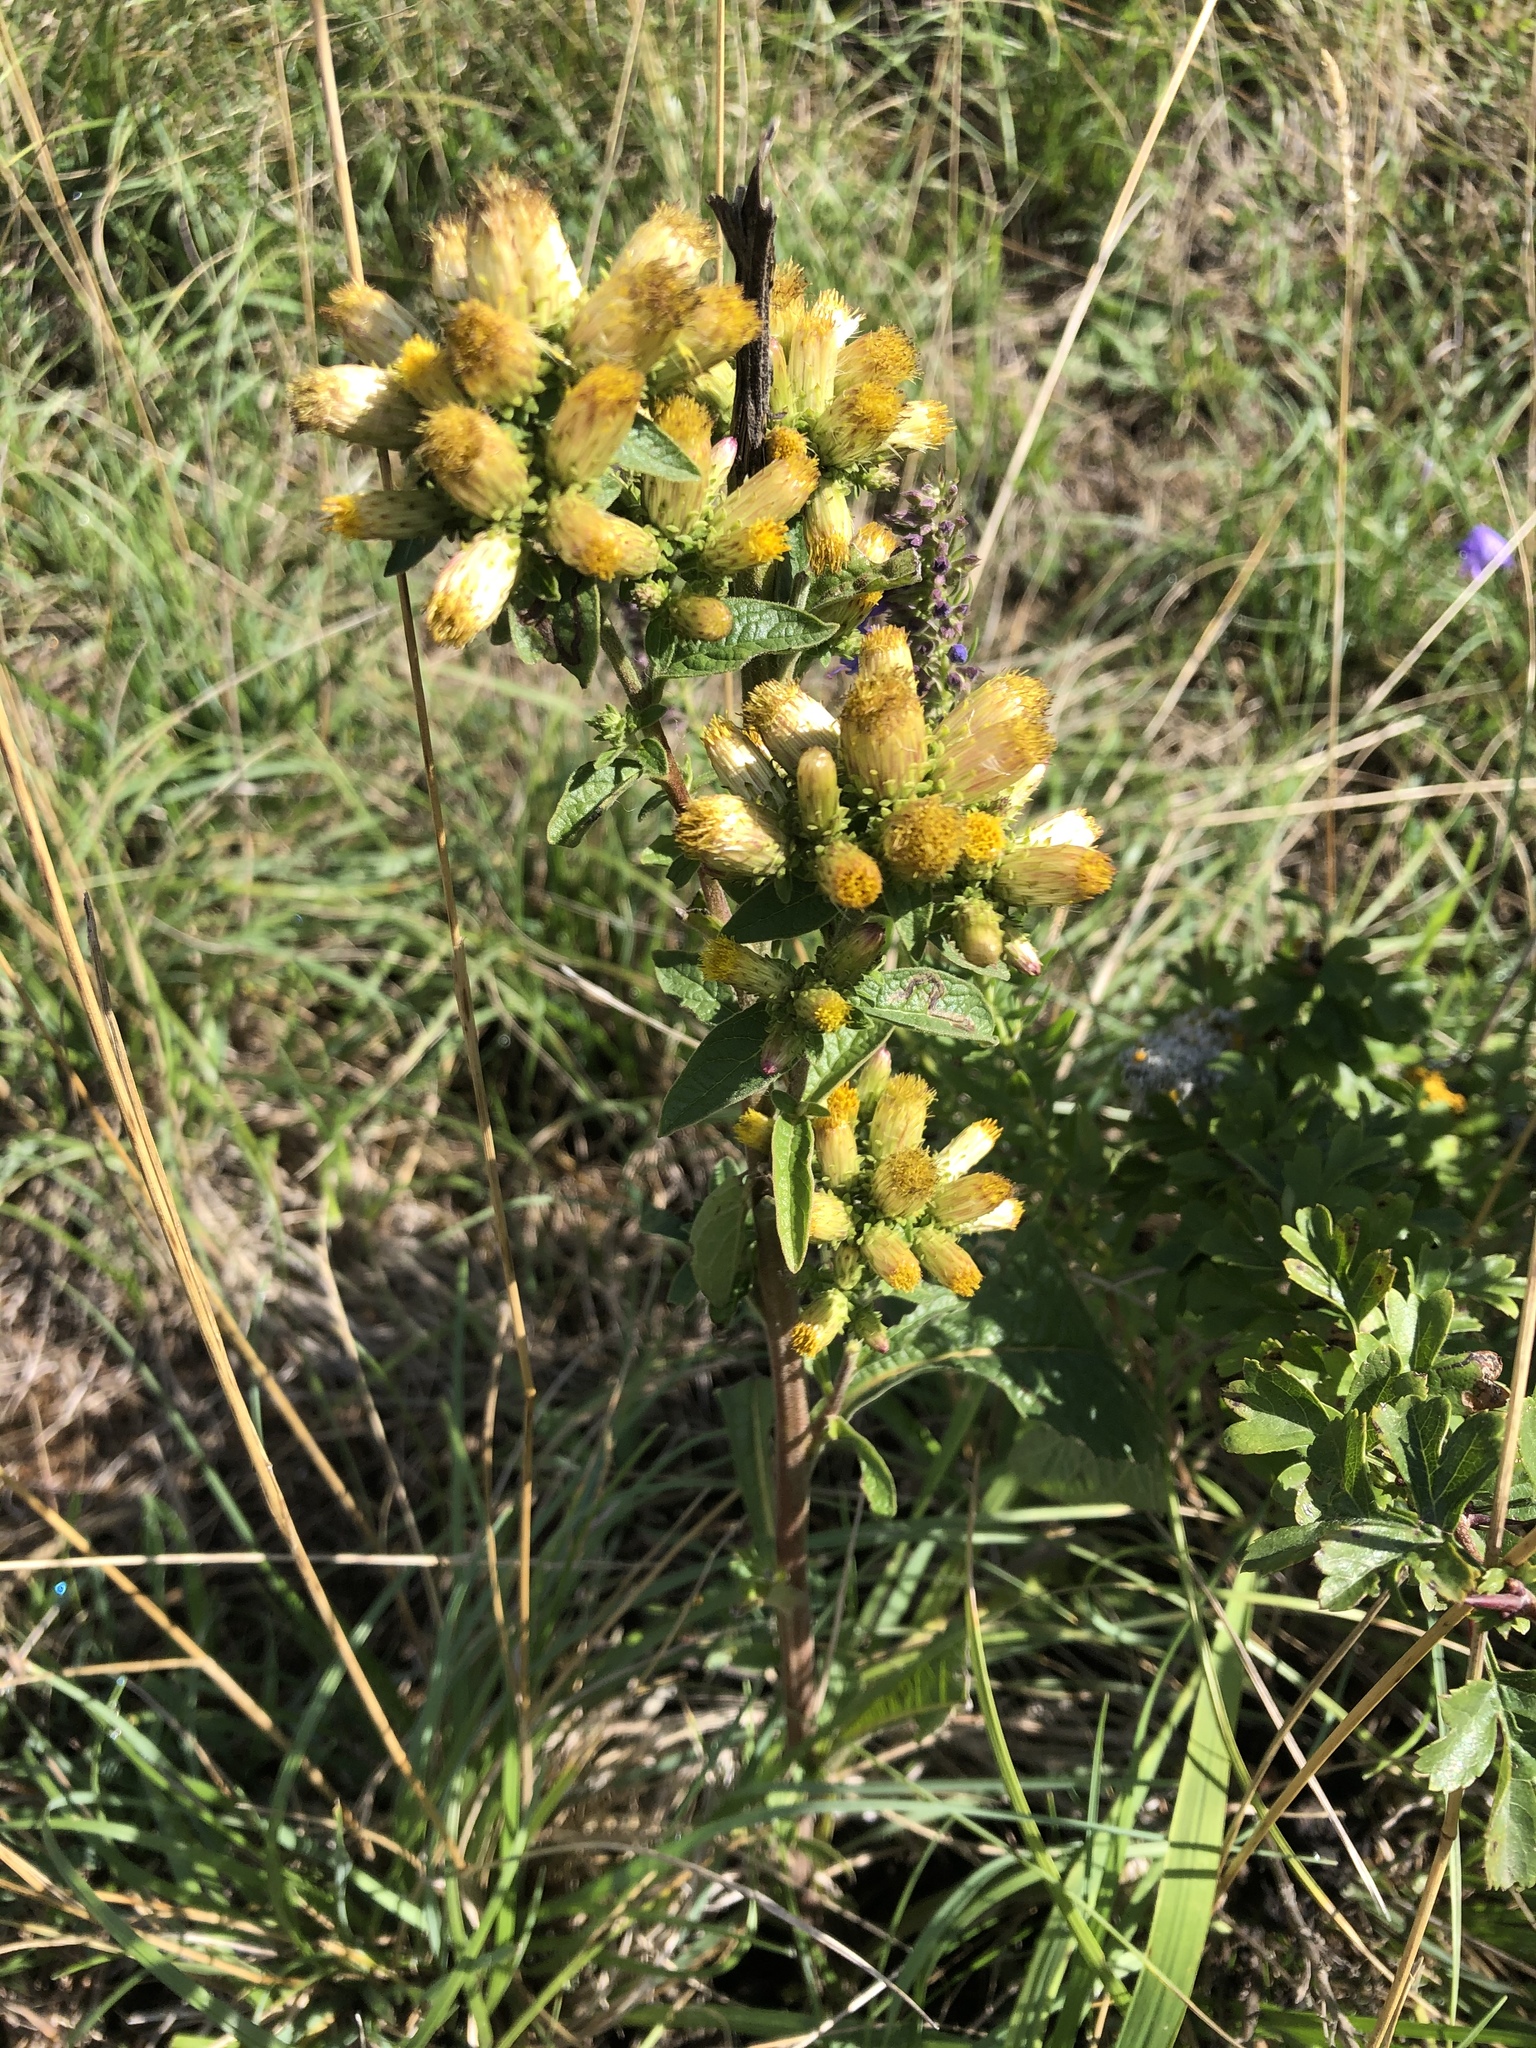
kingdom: Plantae
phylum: Tracheophyta
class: Magnoliopsida
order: Asterales
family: Asteraceae
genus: Pentanema
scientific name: Pentanema squarrosum
